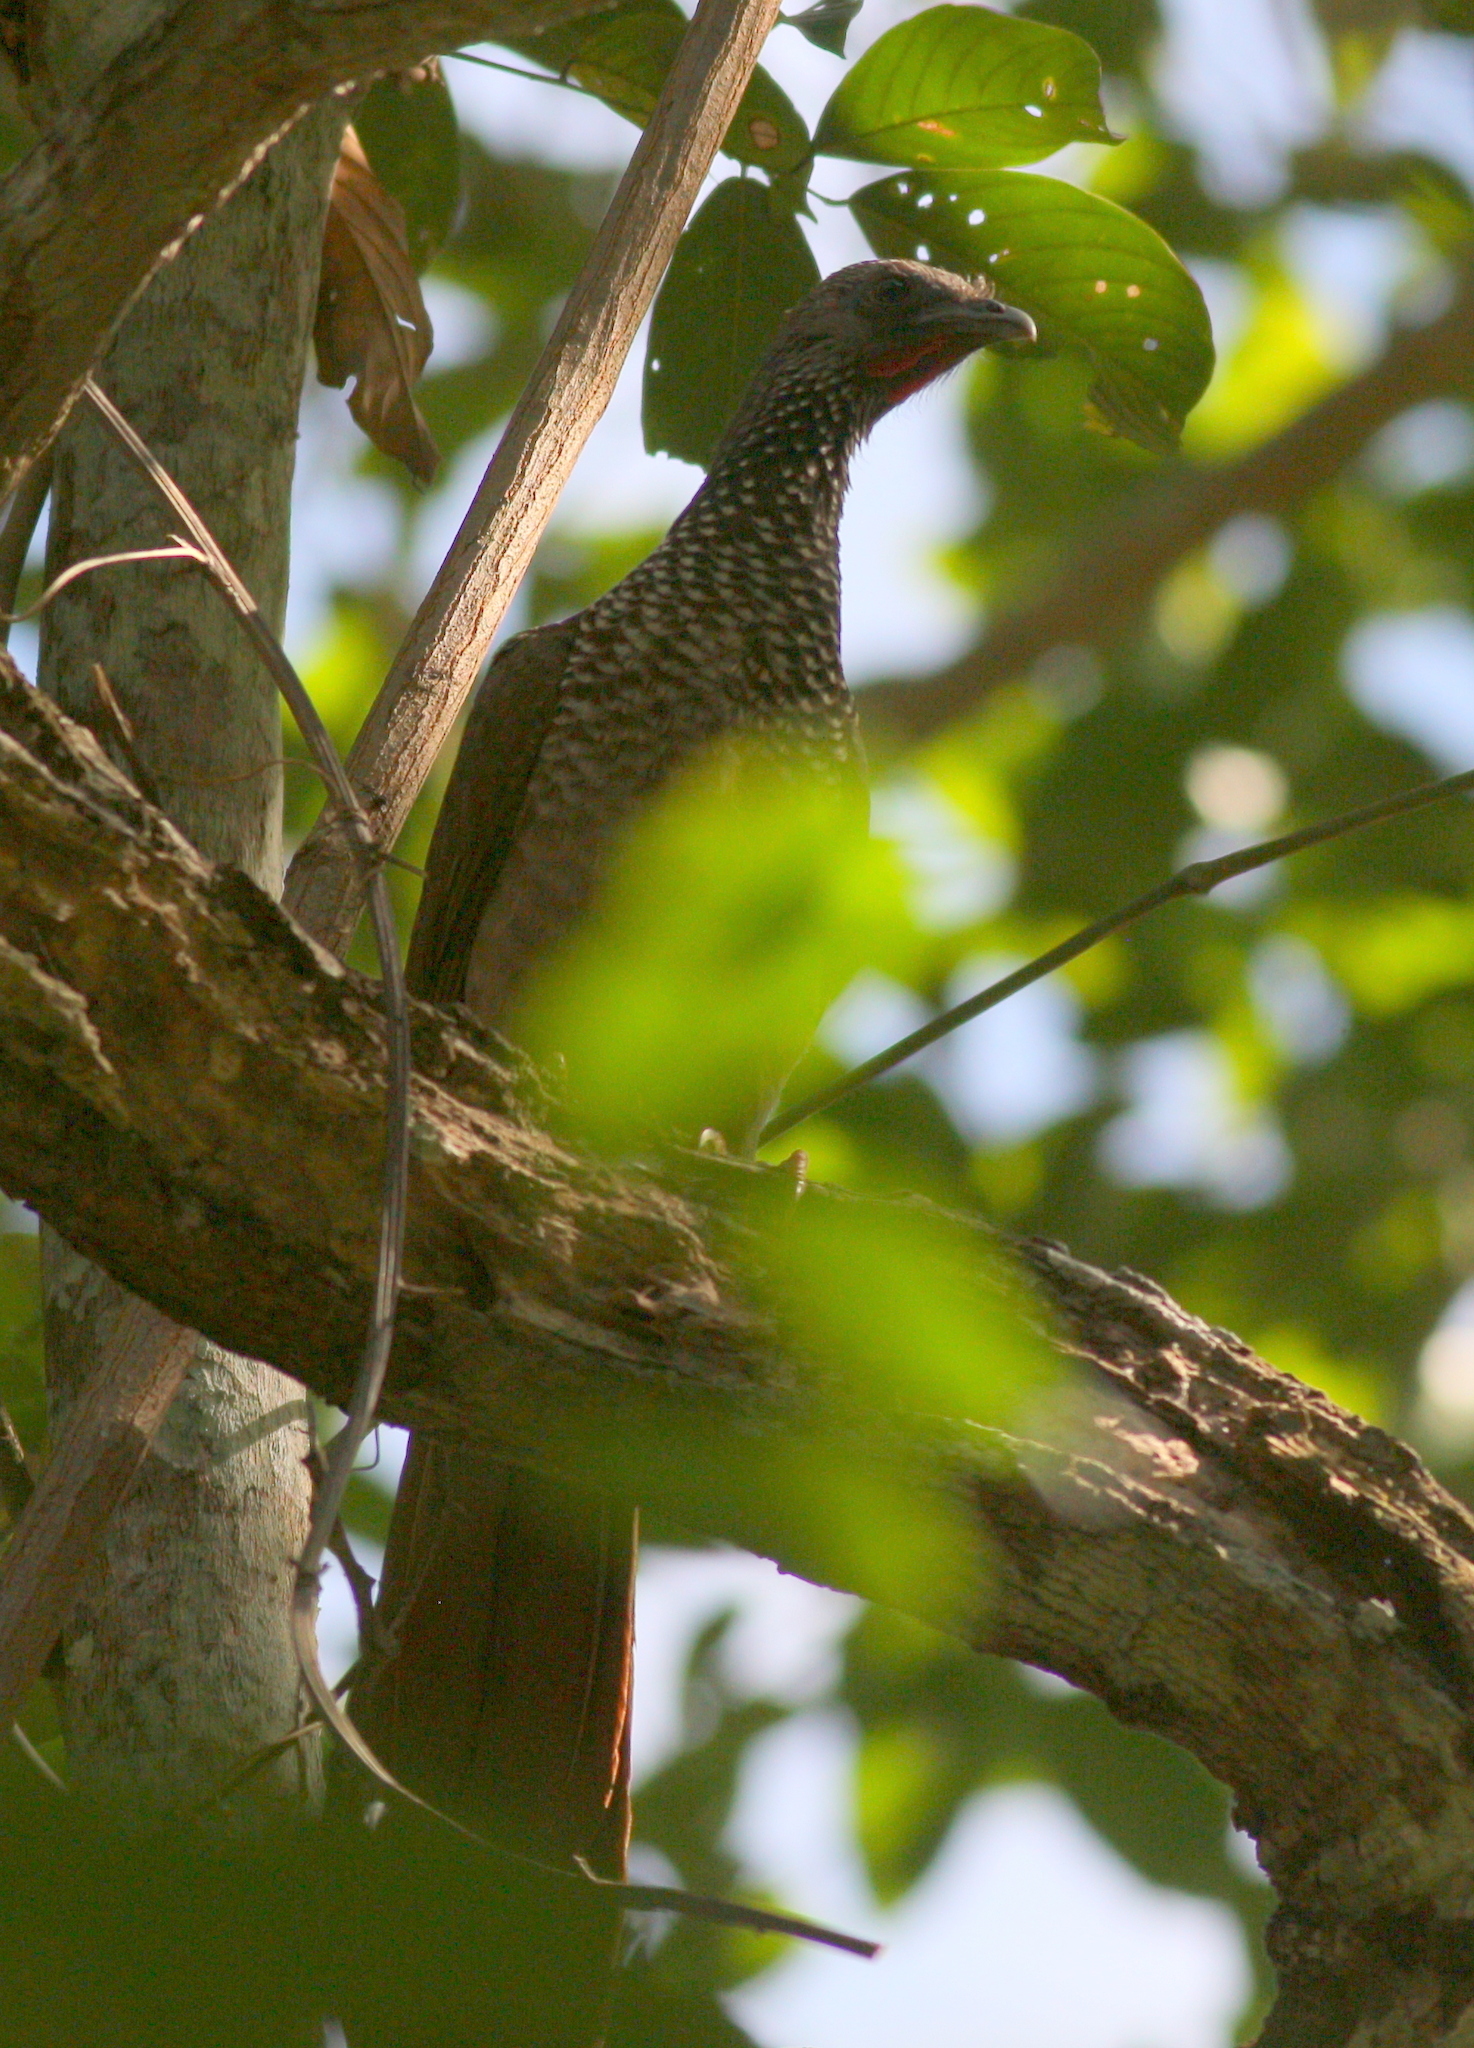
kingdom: Animalia
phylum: Chordata
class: Aves
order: Galliformes
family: Cracidae
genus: Ortalis
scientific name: Ortalis guttata
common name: Speckled chachalaca
